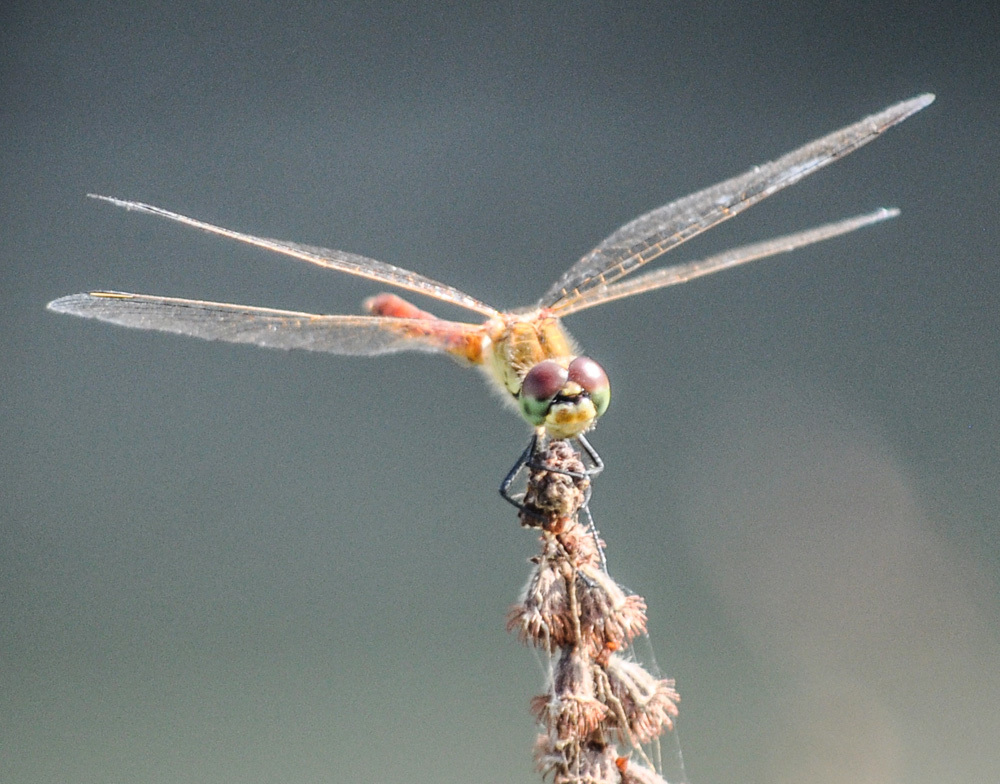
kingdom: Animalia
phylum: Arthropoda
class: Insecta
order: Odonata
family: Libellulidae
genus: Sympetrum
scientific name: Sympetrum depressiusculum
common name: Spotted darter
